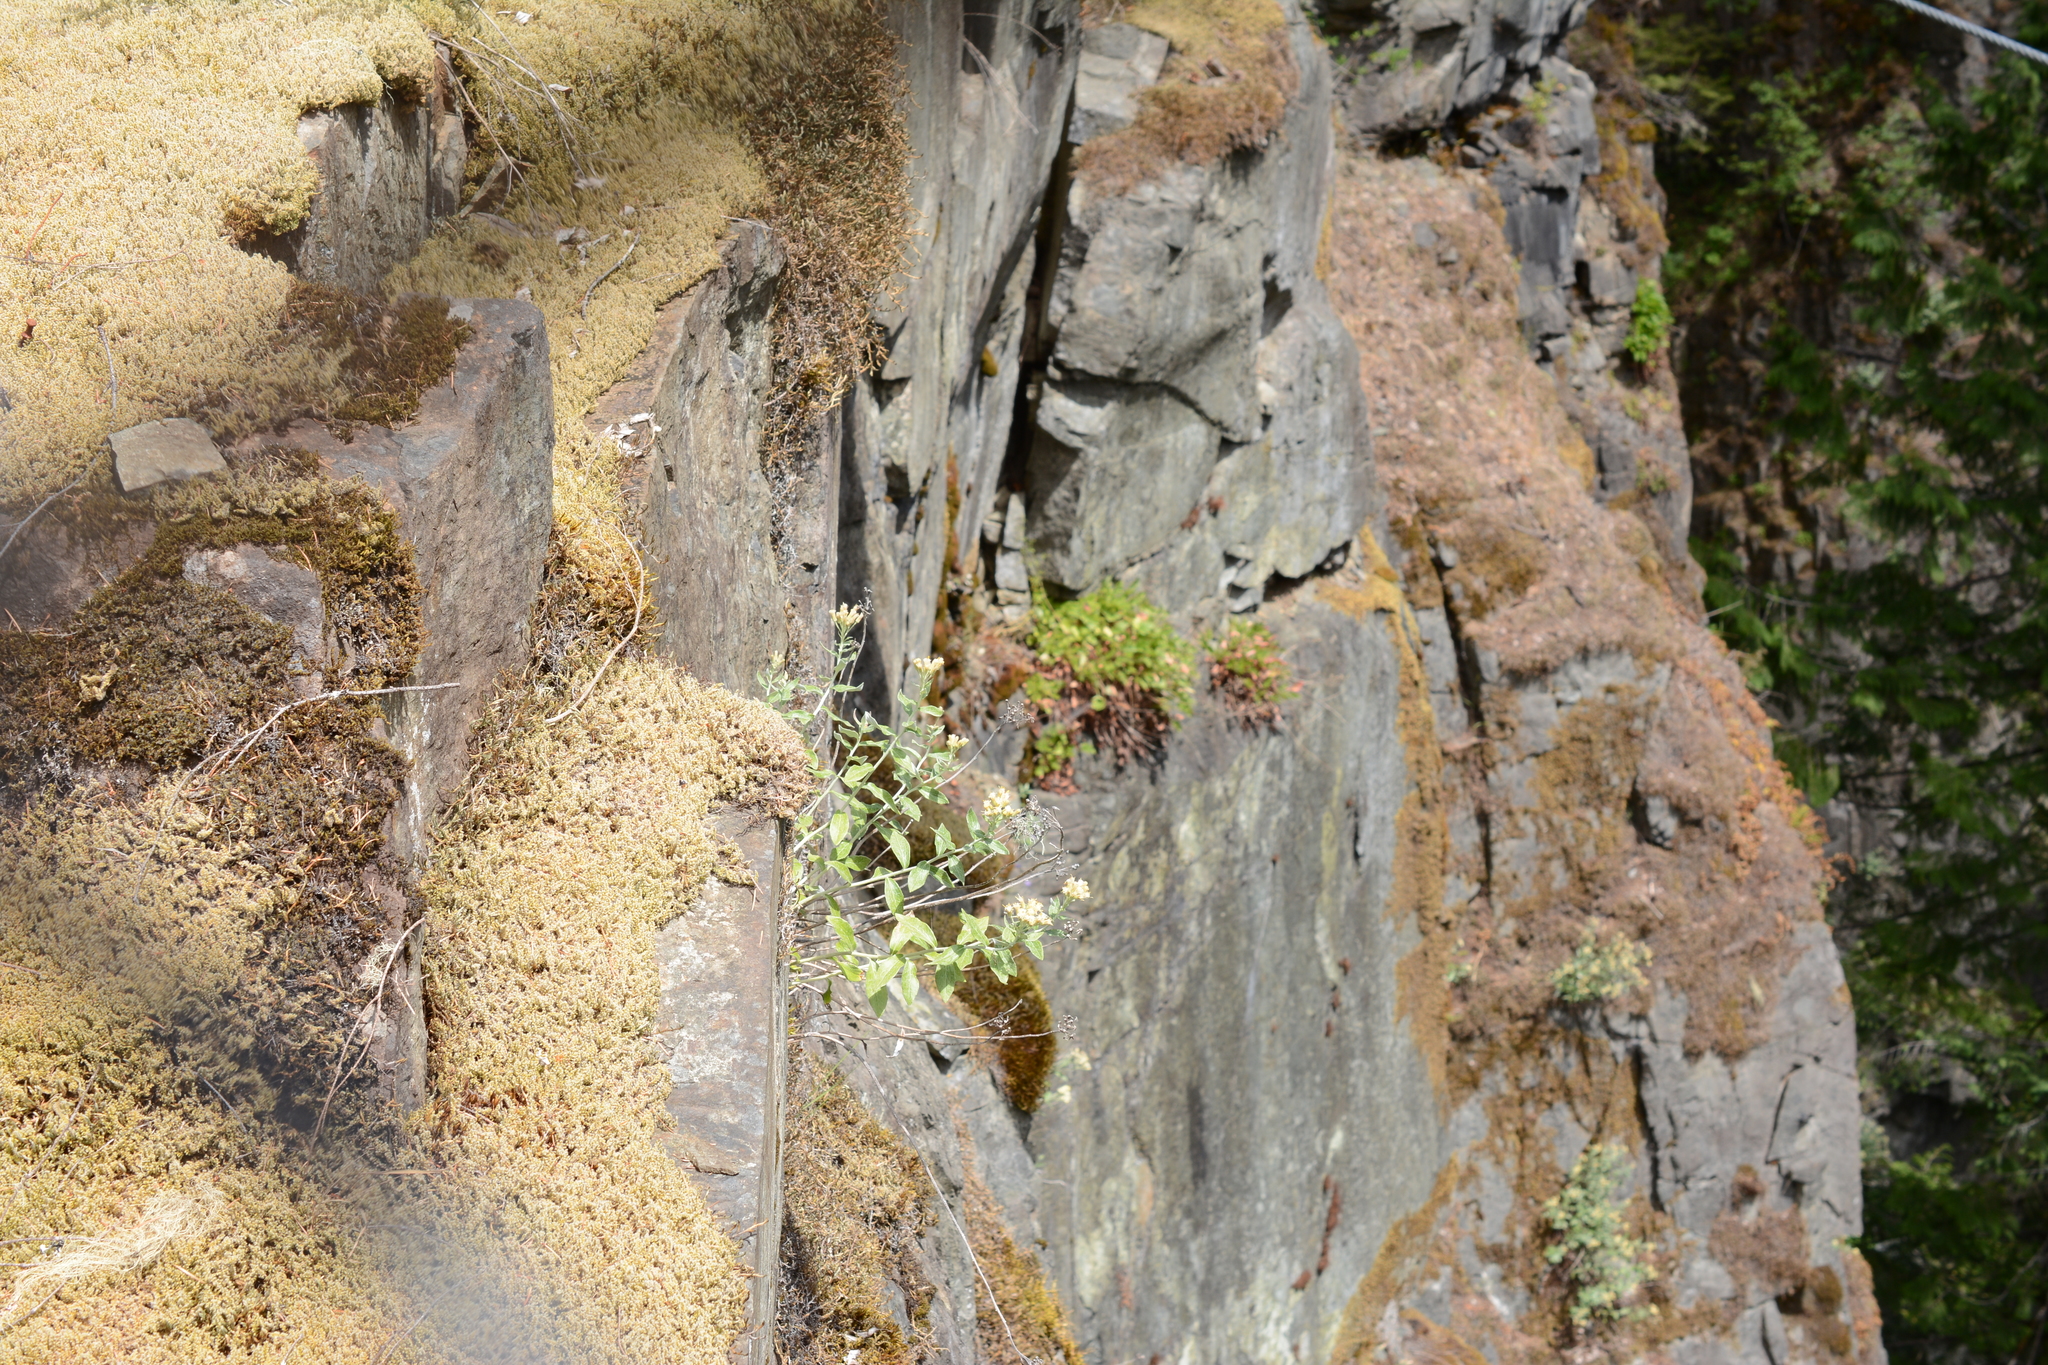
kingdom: Plantae
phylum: Tracheophyta
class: Magnoliopsida
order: Asterales
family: Asteraceae
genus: Luina
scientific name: Luina hypoleuca
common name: Little-leaved luina
